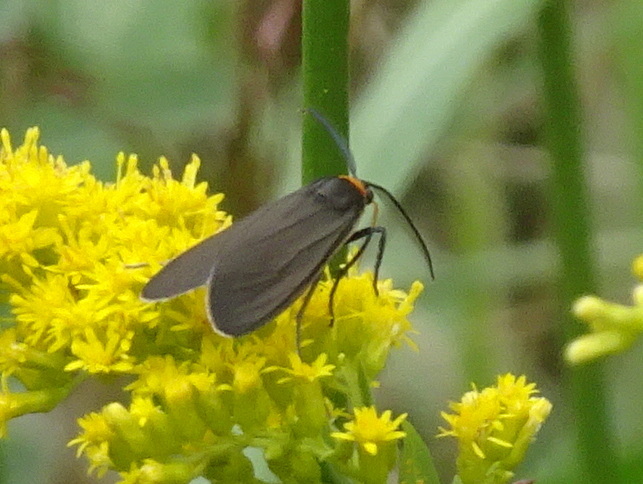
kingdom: Animalia
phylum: Arthropoda
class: Insecta
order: Lepidoptera
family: Erebidae
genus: Cisseps
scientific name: Cisseps fulvicollis
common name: Yellow-collared scape moth
